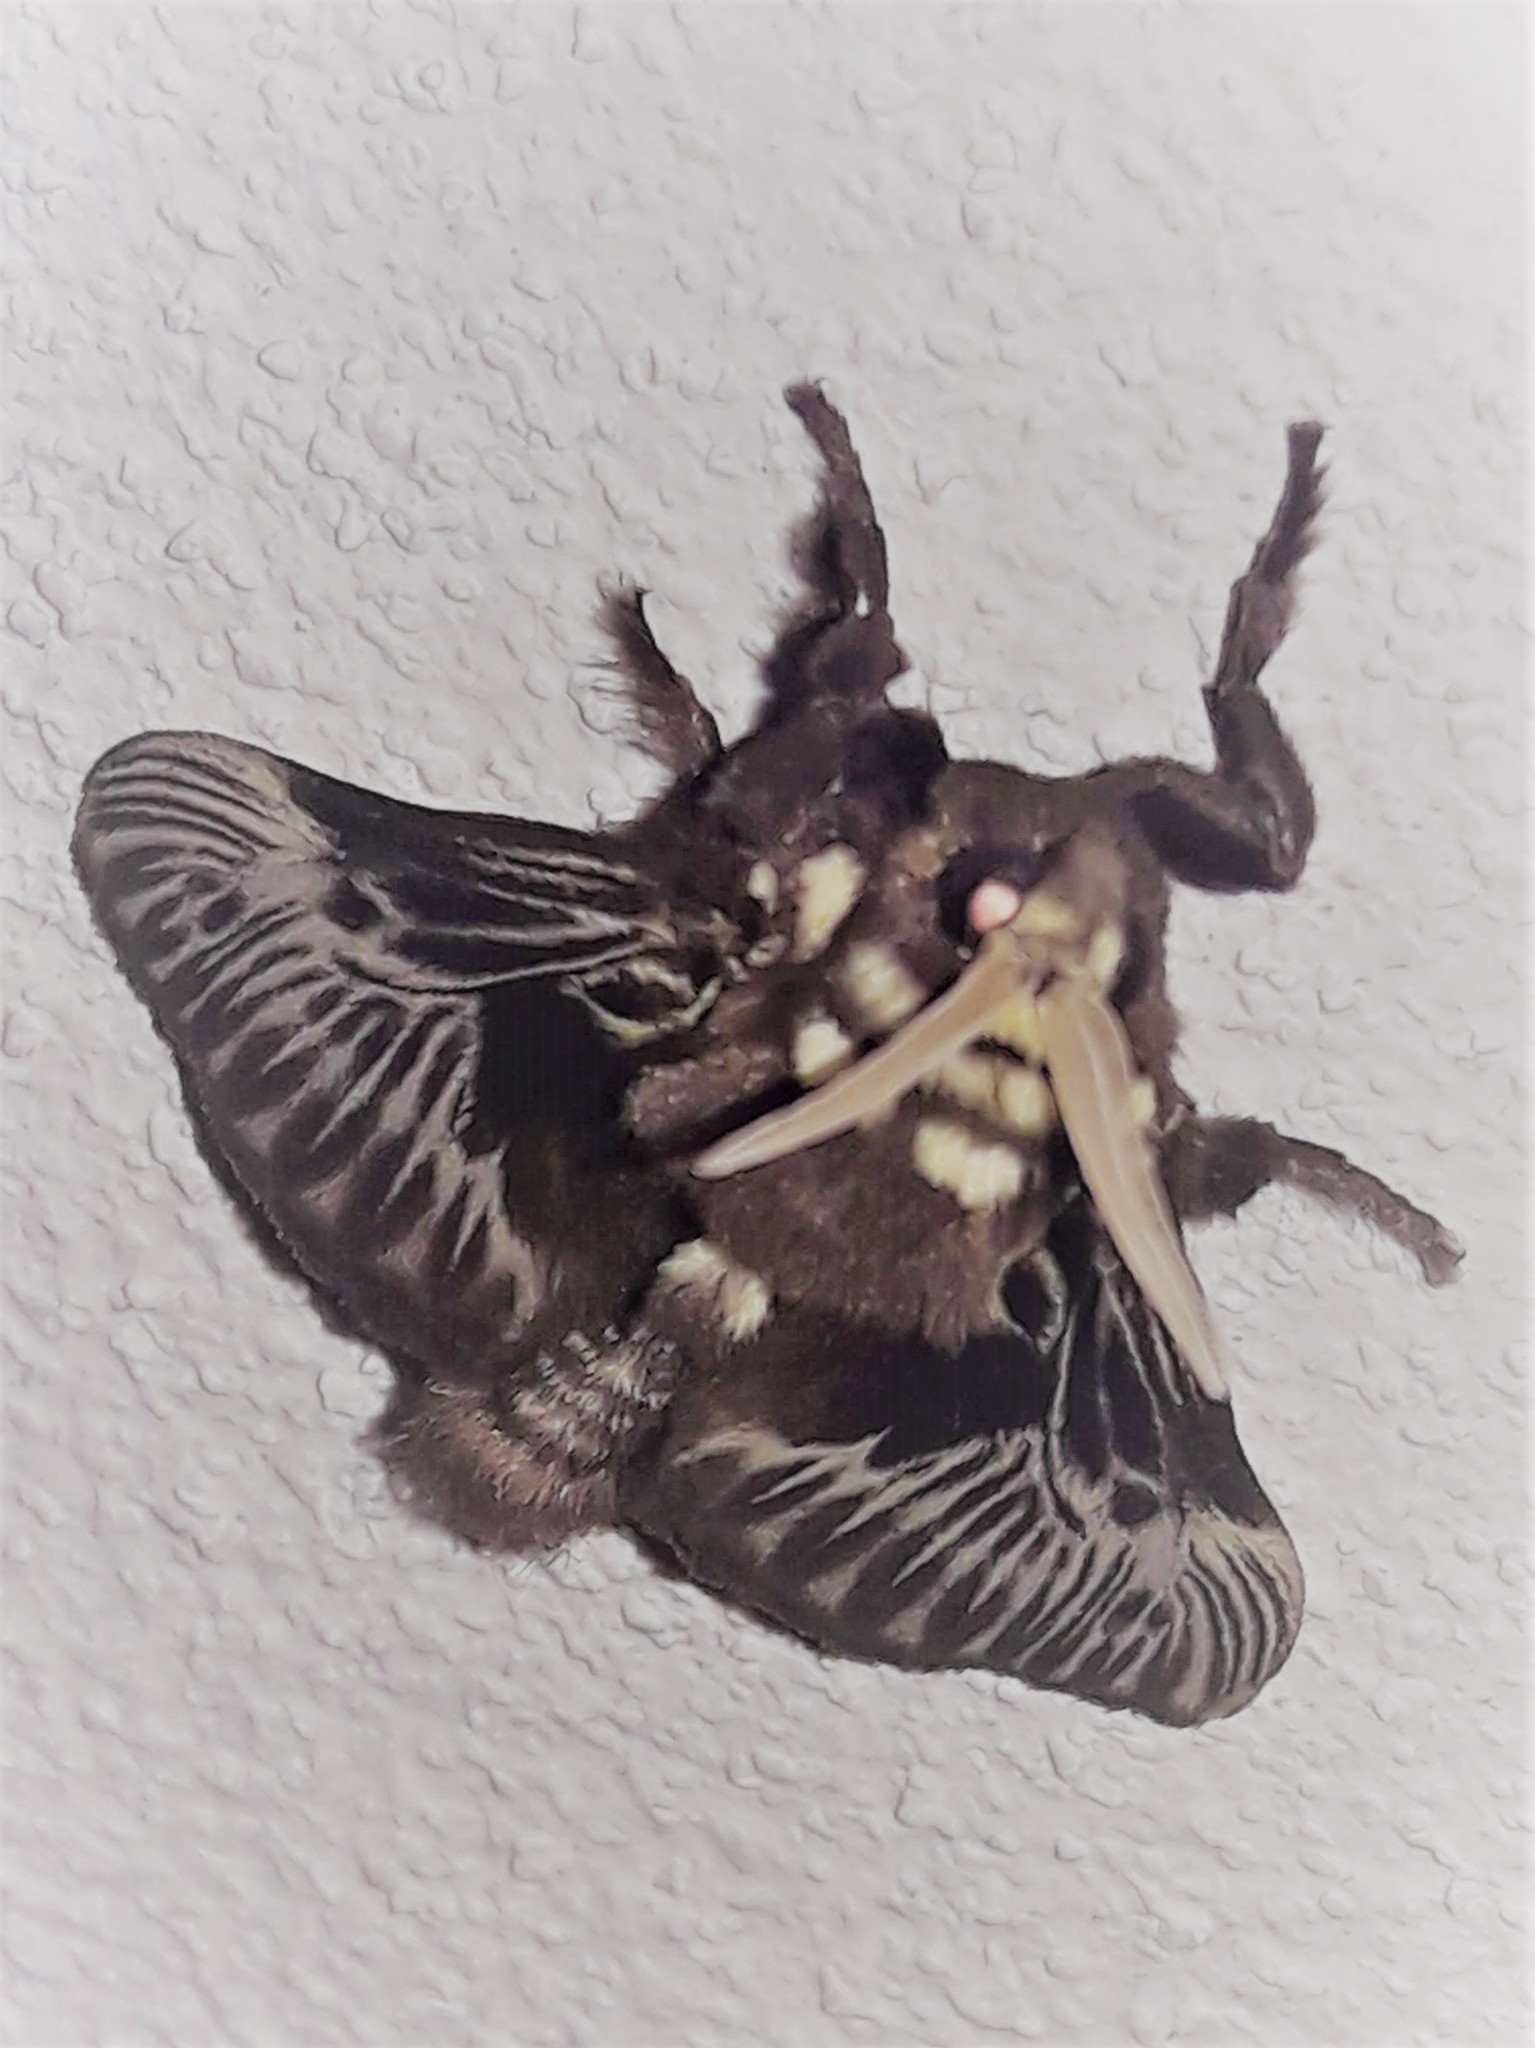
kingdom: Animalia
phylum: Arthropoda
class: Insecta
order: Lepidoptera
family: Megalopygidae
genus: Megalopyge
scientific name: Megalopyge albicollis
